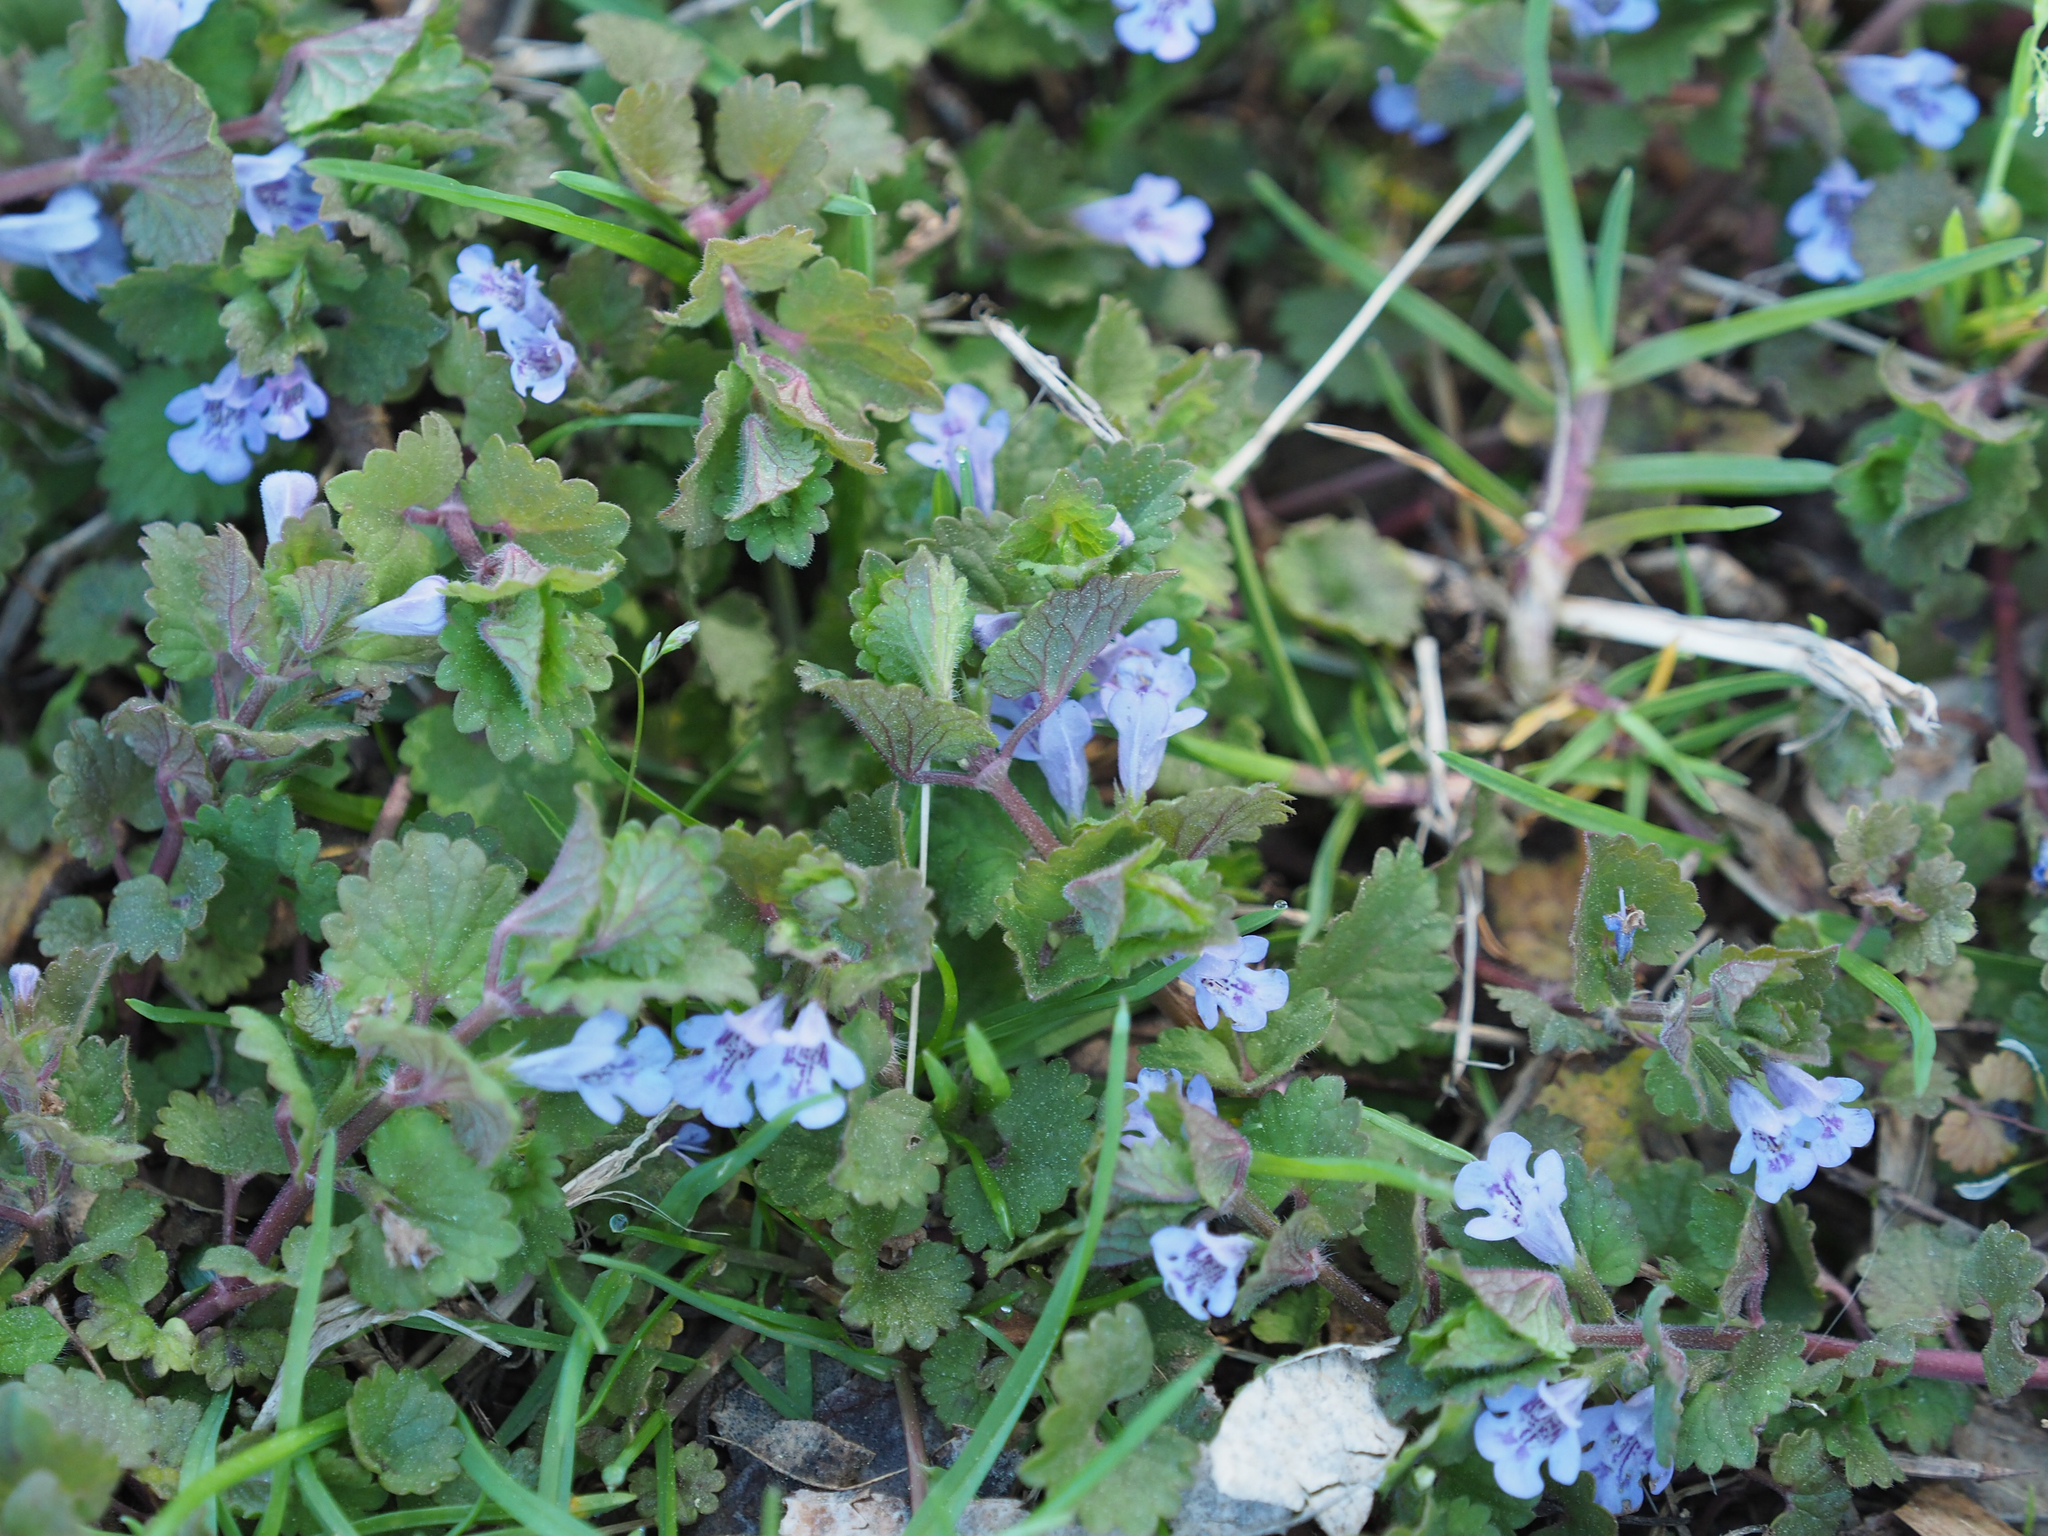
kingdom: Plantae
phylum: Tracheophyta
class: Magnoliopsida
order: Lamiales
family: Lamiaceae
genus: Glechoma
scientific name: Glechoma hederacea
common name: Ground ivy
